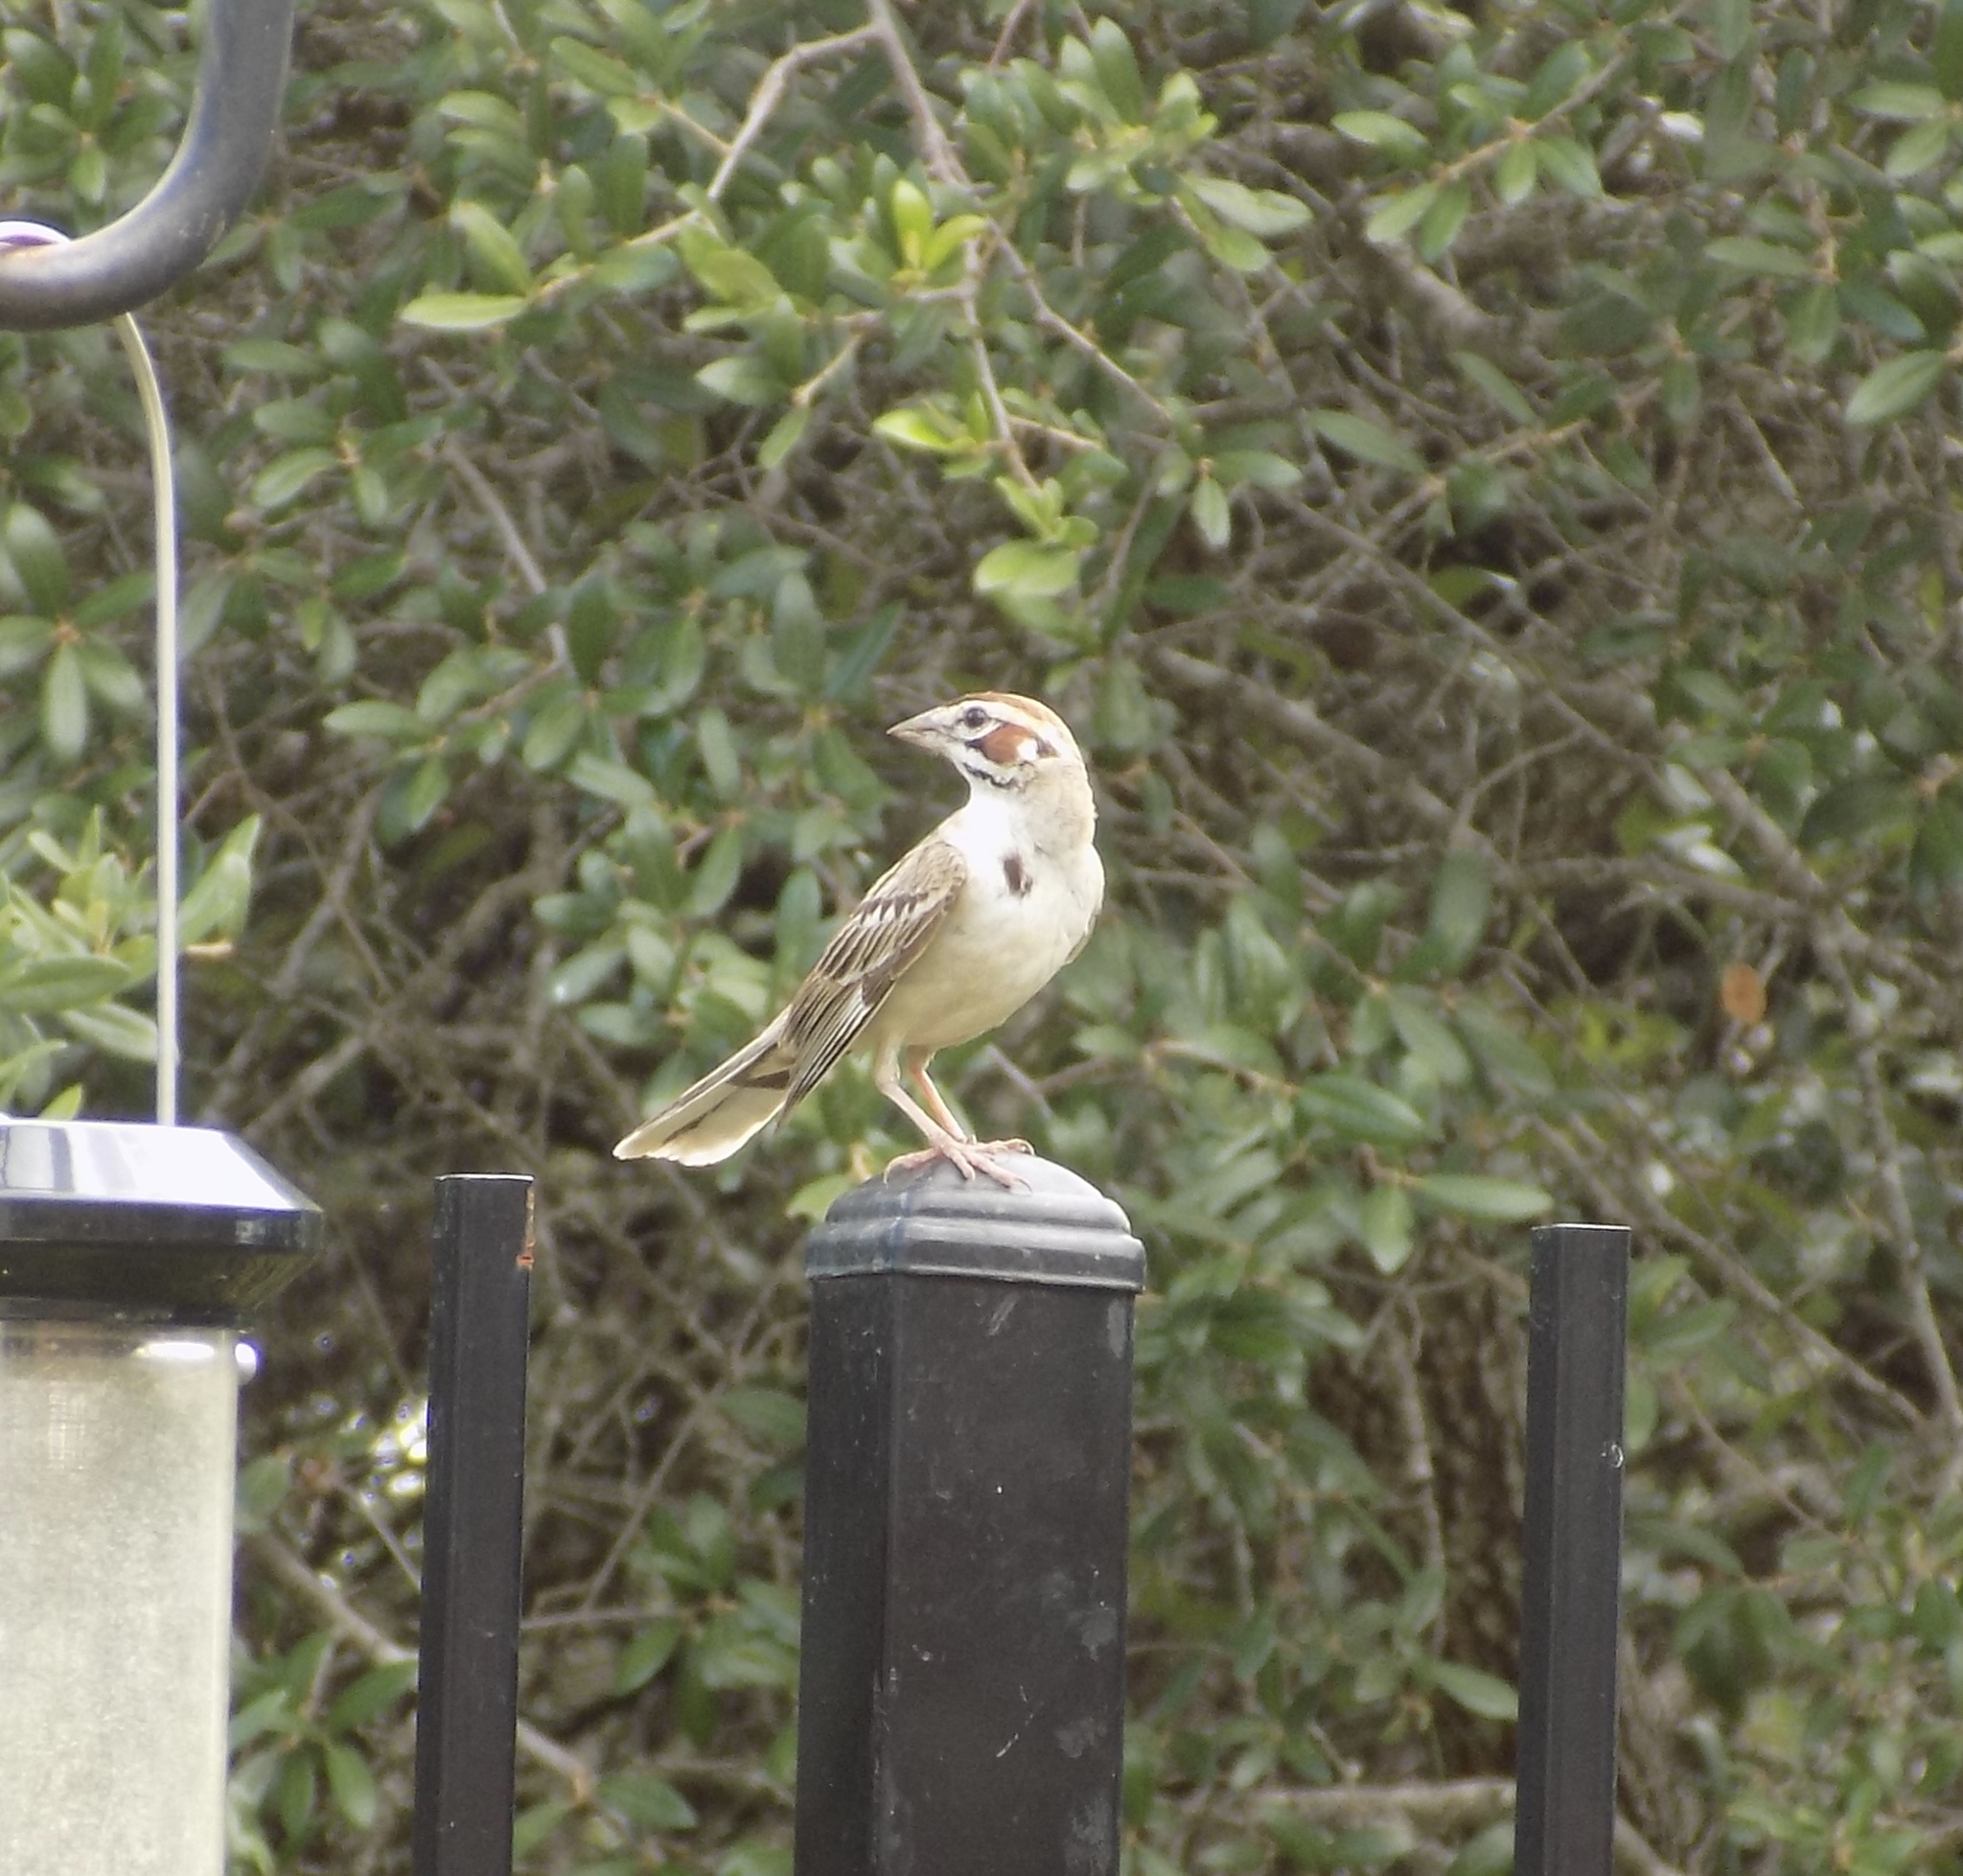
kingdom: Animalia
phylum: Chordata
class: Aves
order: Passeriformes
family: Passerellidae
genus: Chondestes
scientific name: Chondestes grammacus
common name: Lark sparrow
